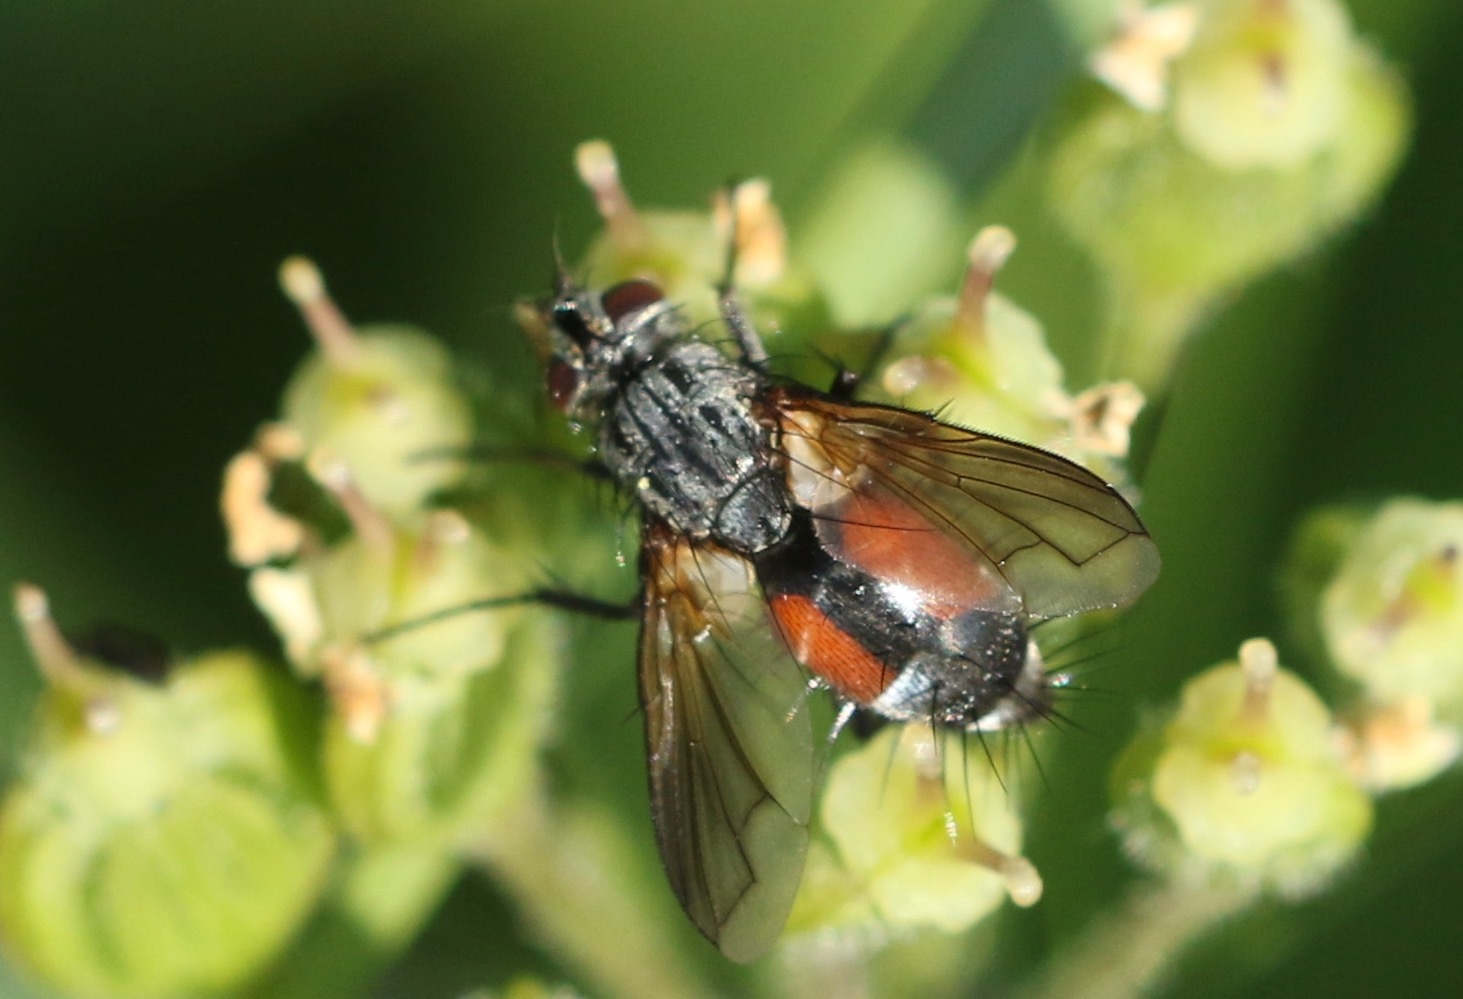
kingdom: Animalia
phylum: Arthropoda
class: Insecta
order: Diptera
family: Tachinidae
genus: Eriothrix
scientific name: Eriothrix rufomaculatus
